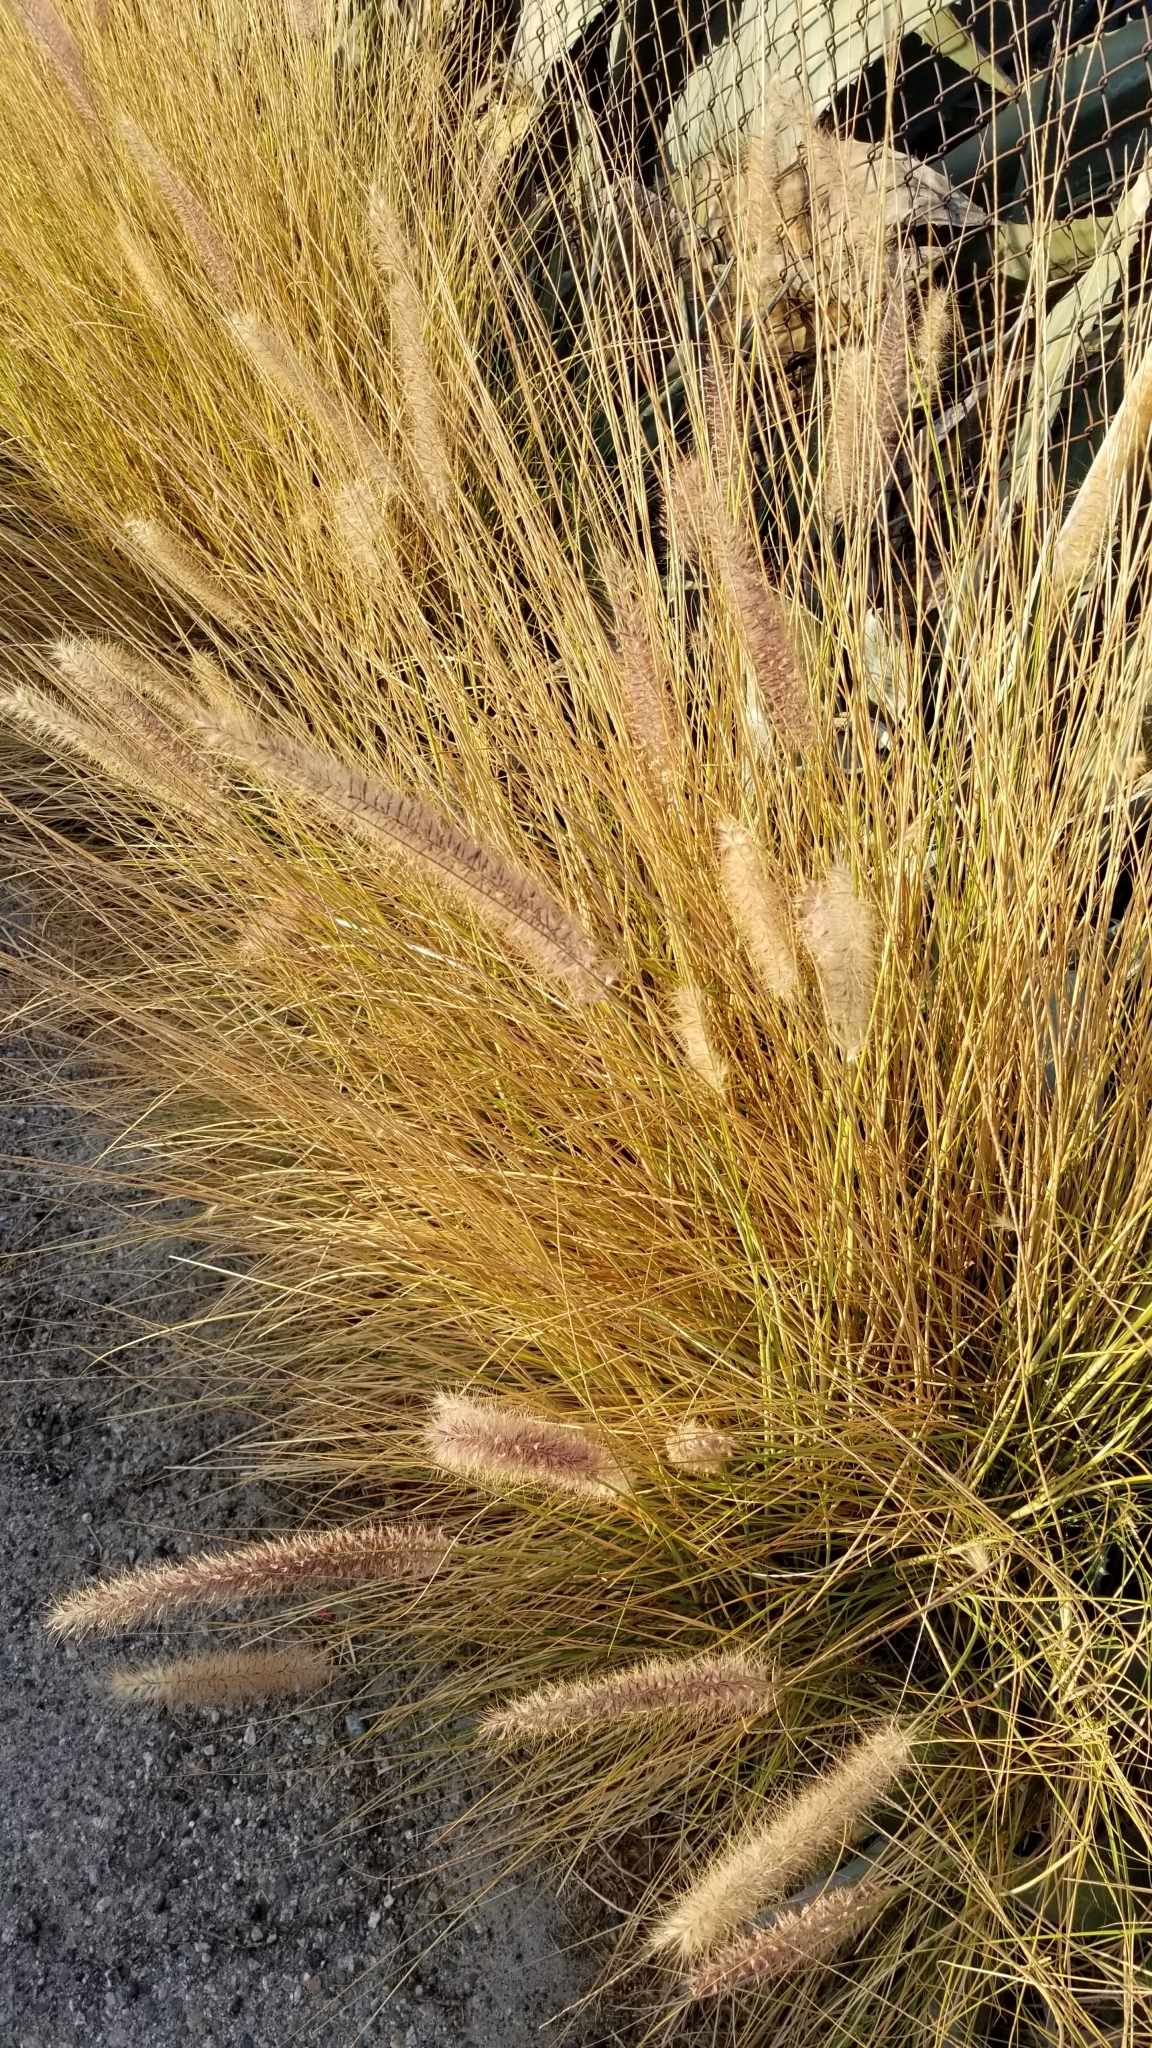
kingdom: Plantae
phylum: Tracheophyta
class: Liliopsida
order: Poales
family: Poaceae
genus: Cenchrus
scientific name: Cenchrus setaceus
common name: Crimson fountaingrass
